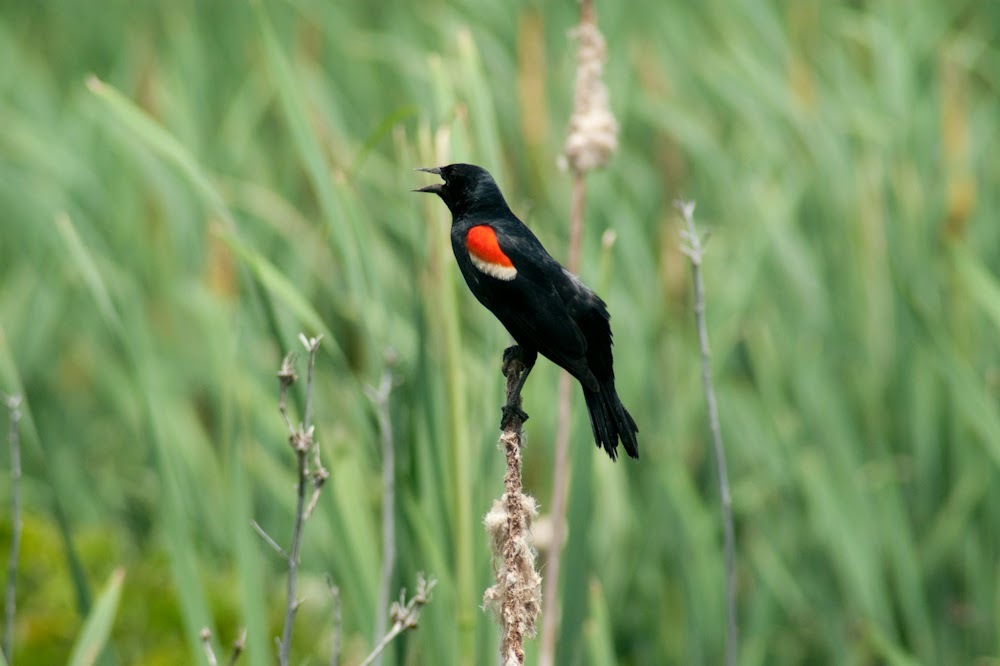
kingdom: Animalia
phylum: Chordata
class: Aves
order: Passeriformes
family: Icteridae
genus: Agelaius
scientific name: Agelaius phoeniceus
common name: Red-winged blackbird
